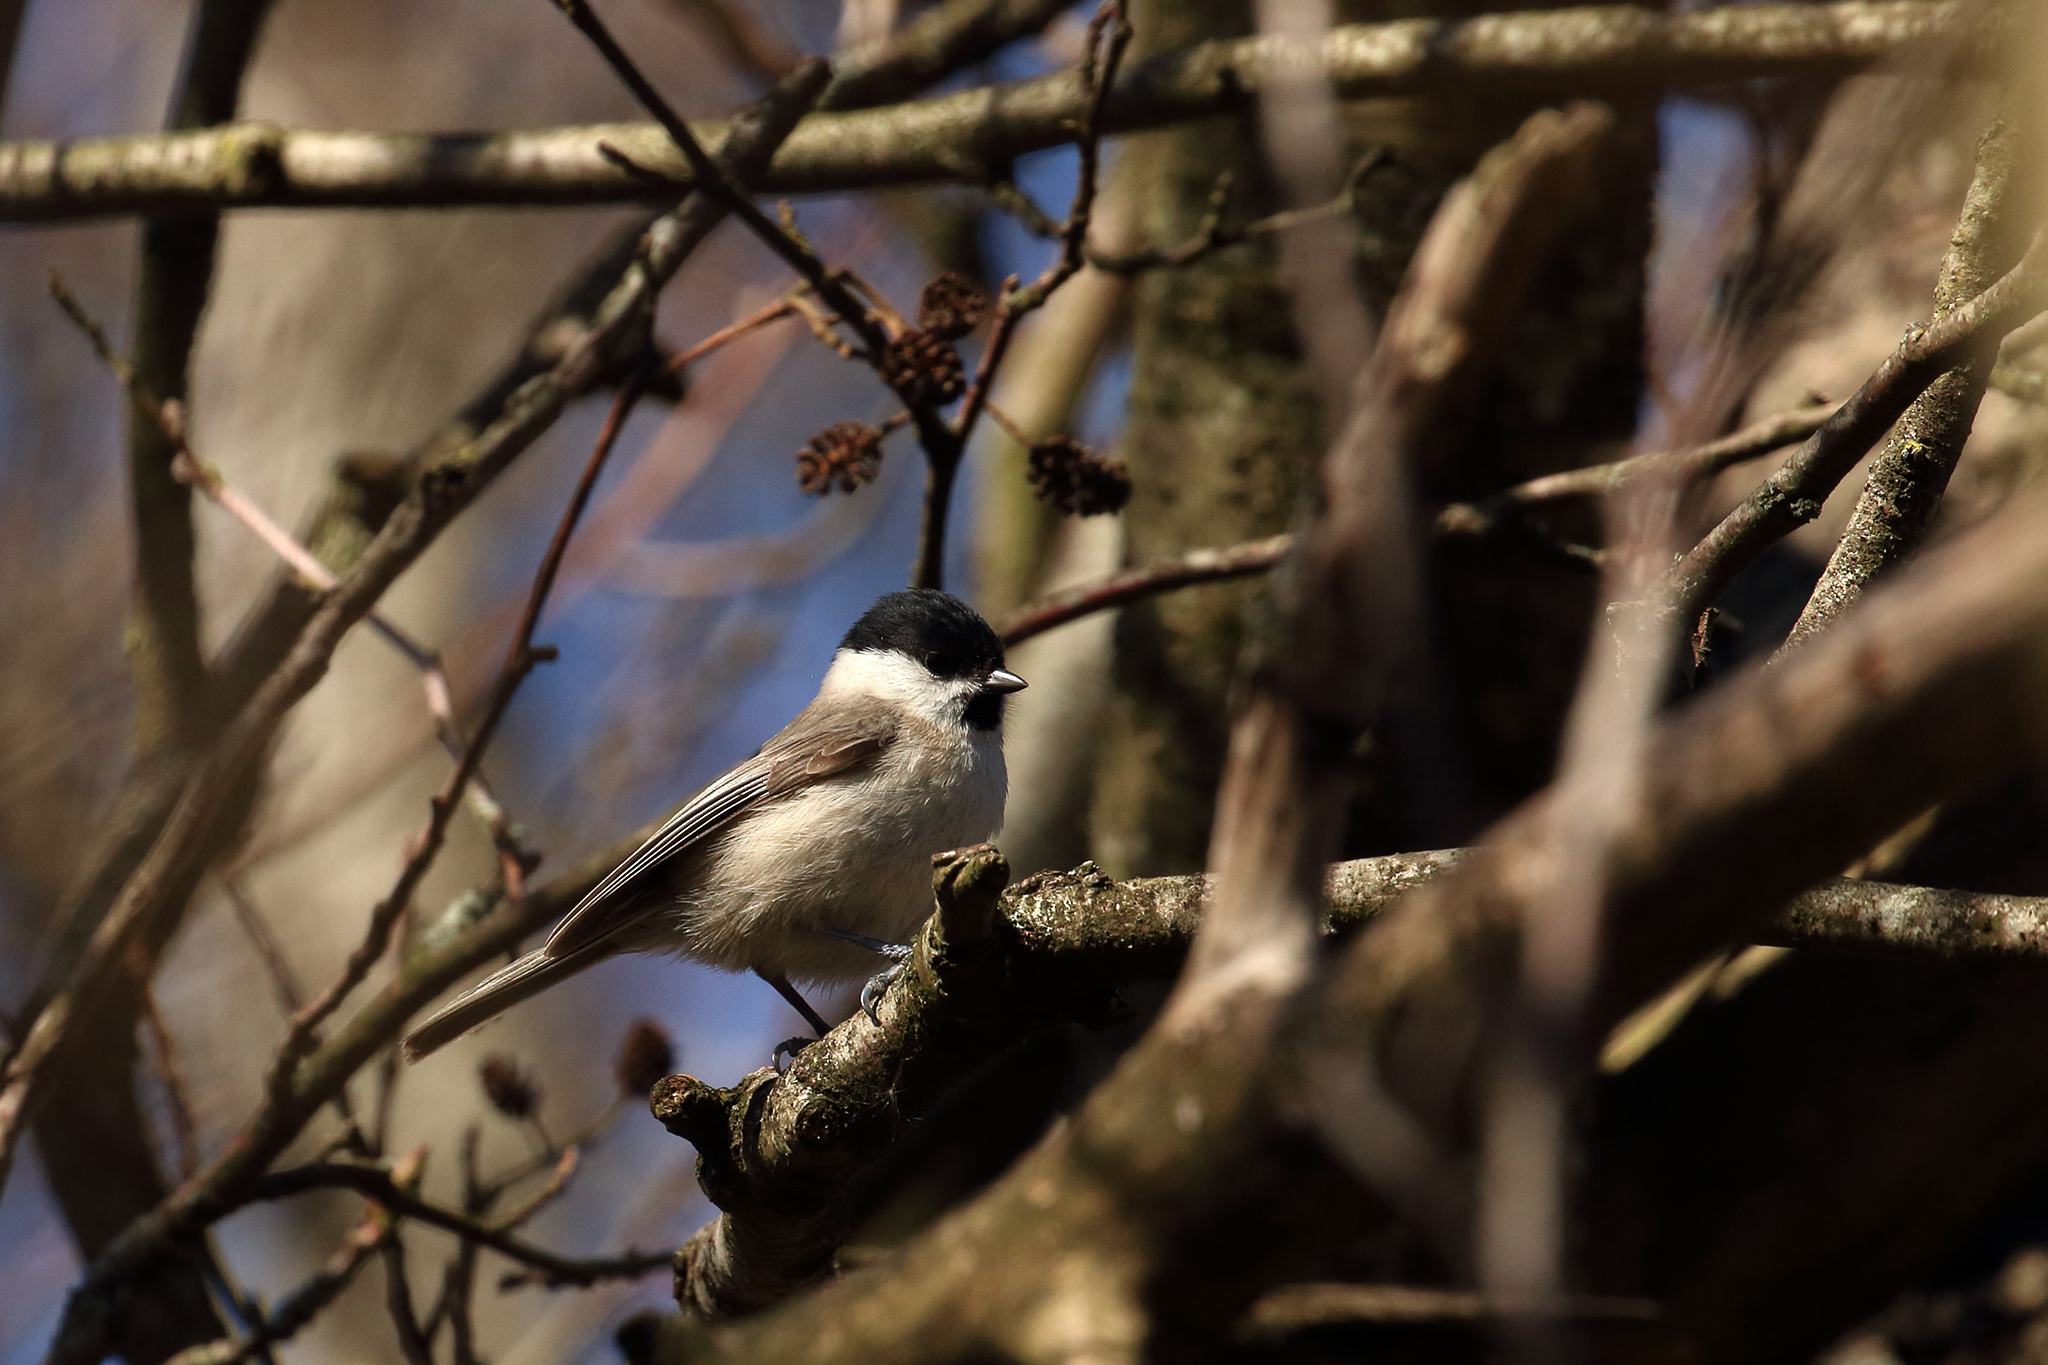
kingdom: Animalia
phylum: Chordata
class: Aves
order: Passeriformes
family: Paridae
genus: Poecile
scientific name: Poecile palustris
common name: Marsh tit
